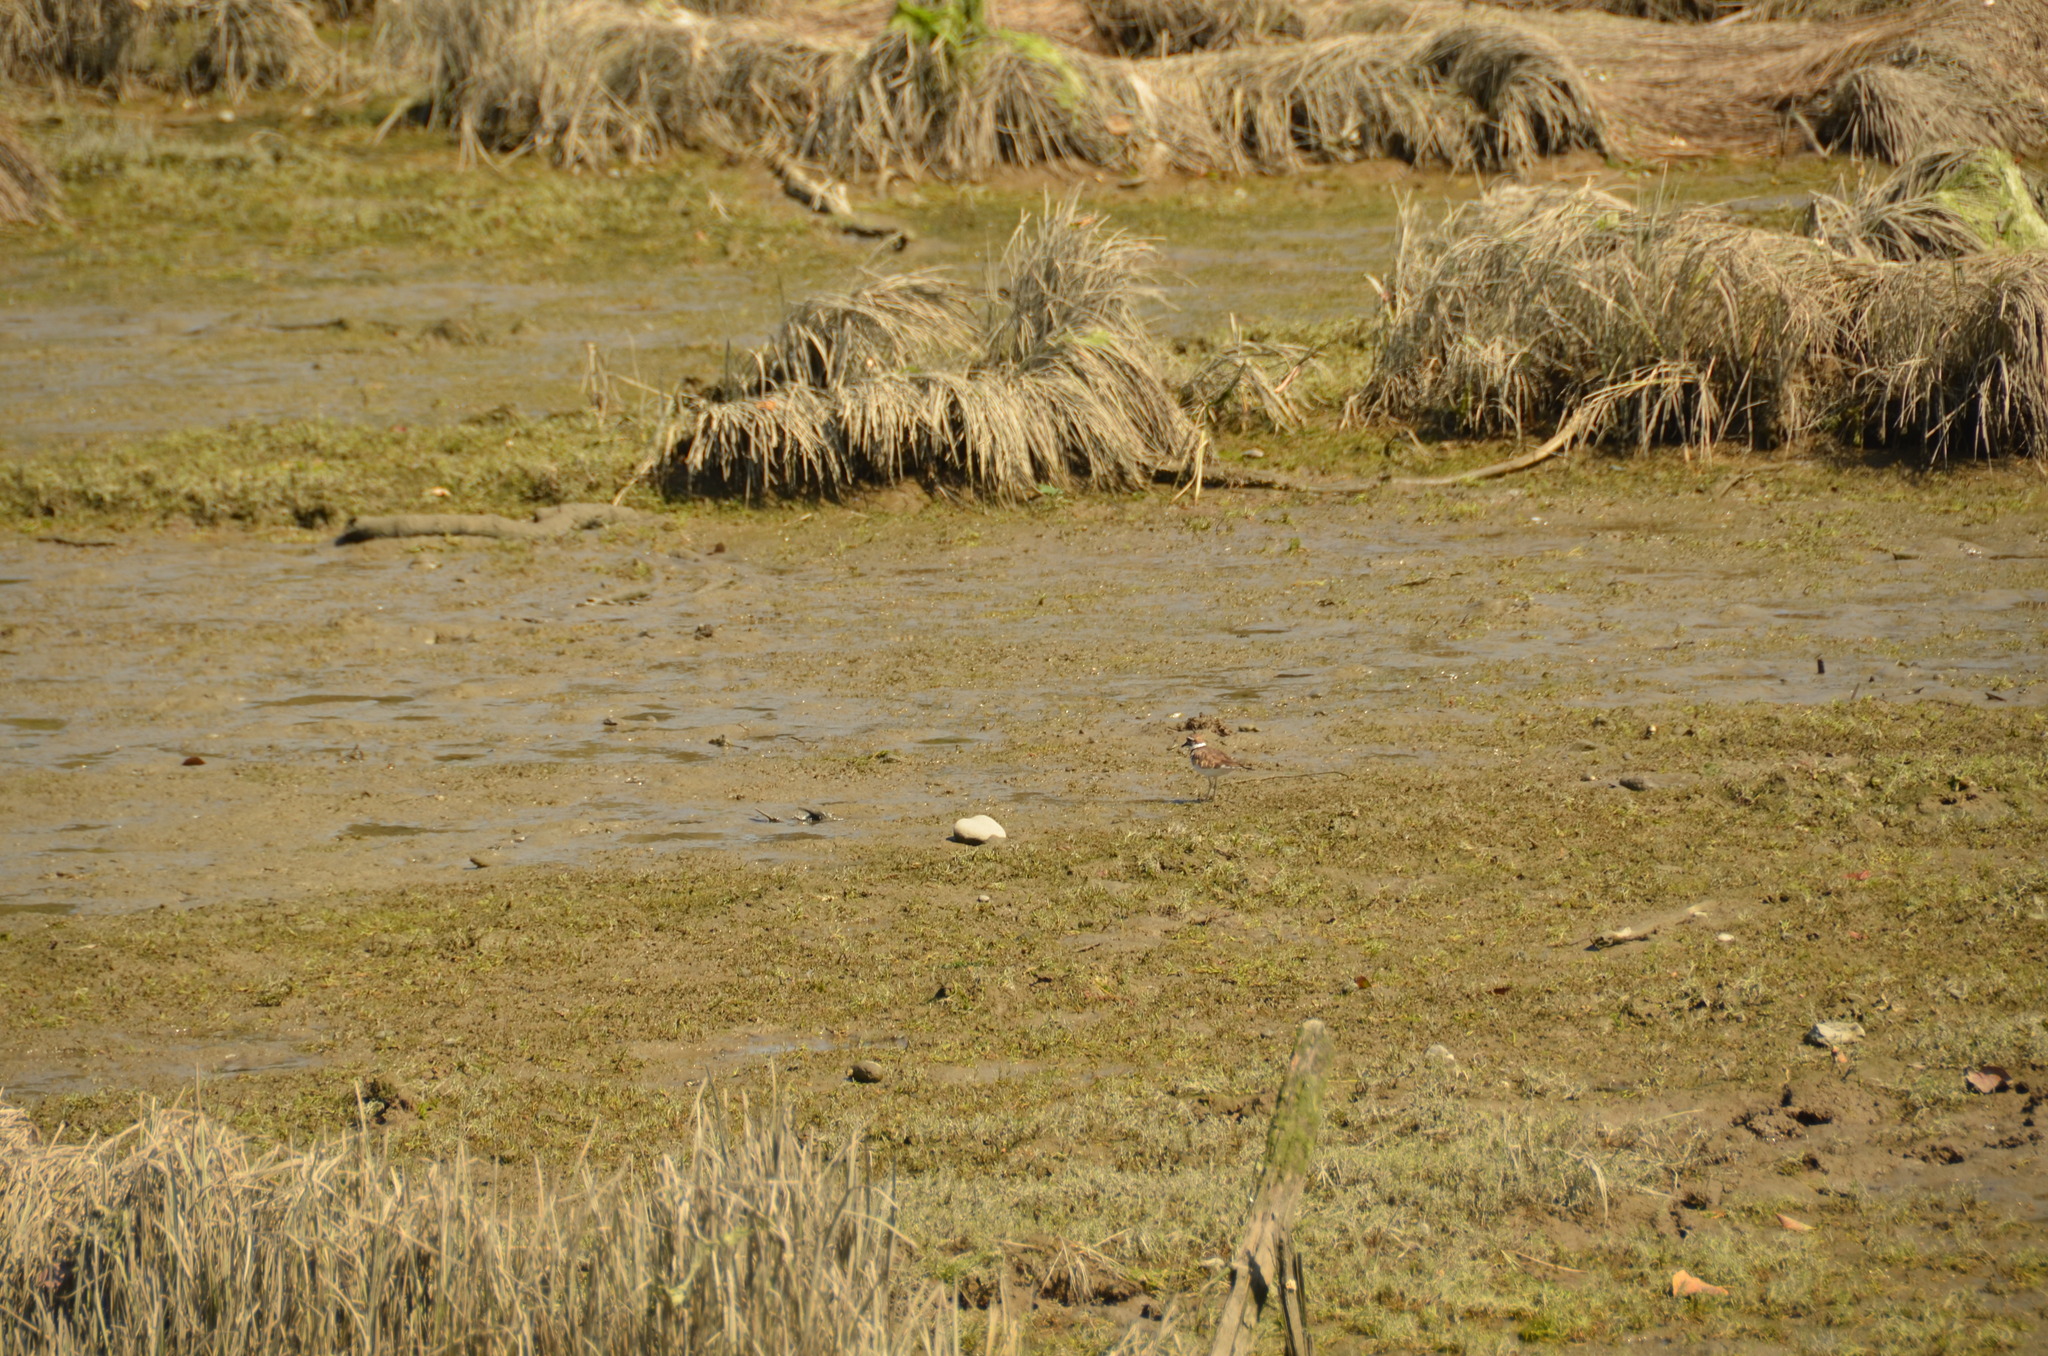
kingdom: Animalia
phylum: Chordata
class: Aves
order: Charadriiformes
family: Charadriidae
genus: Charadrius
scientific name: Charadrius vociferus
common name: Killdeer
